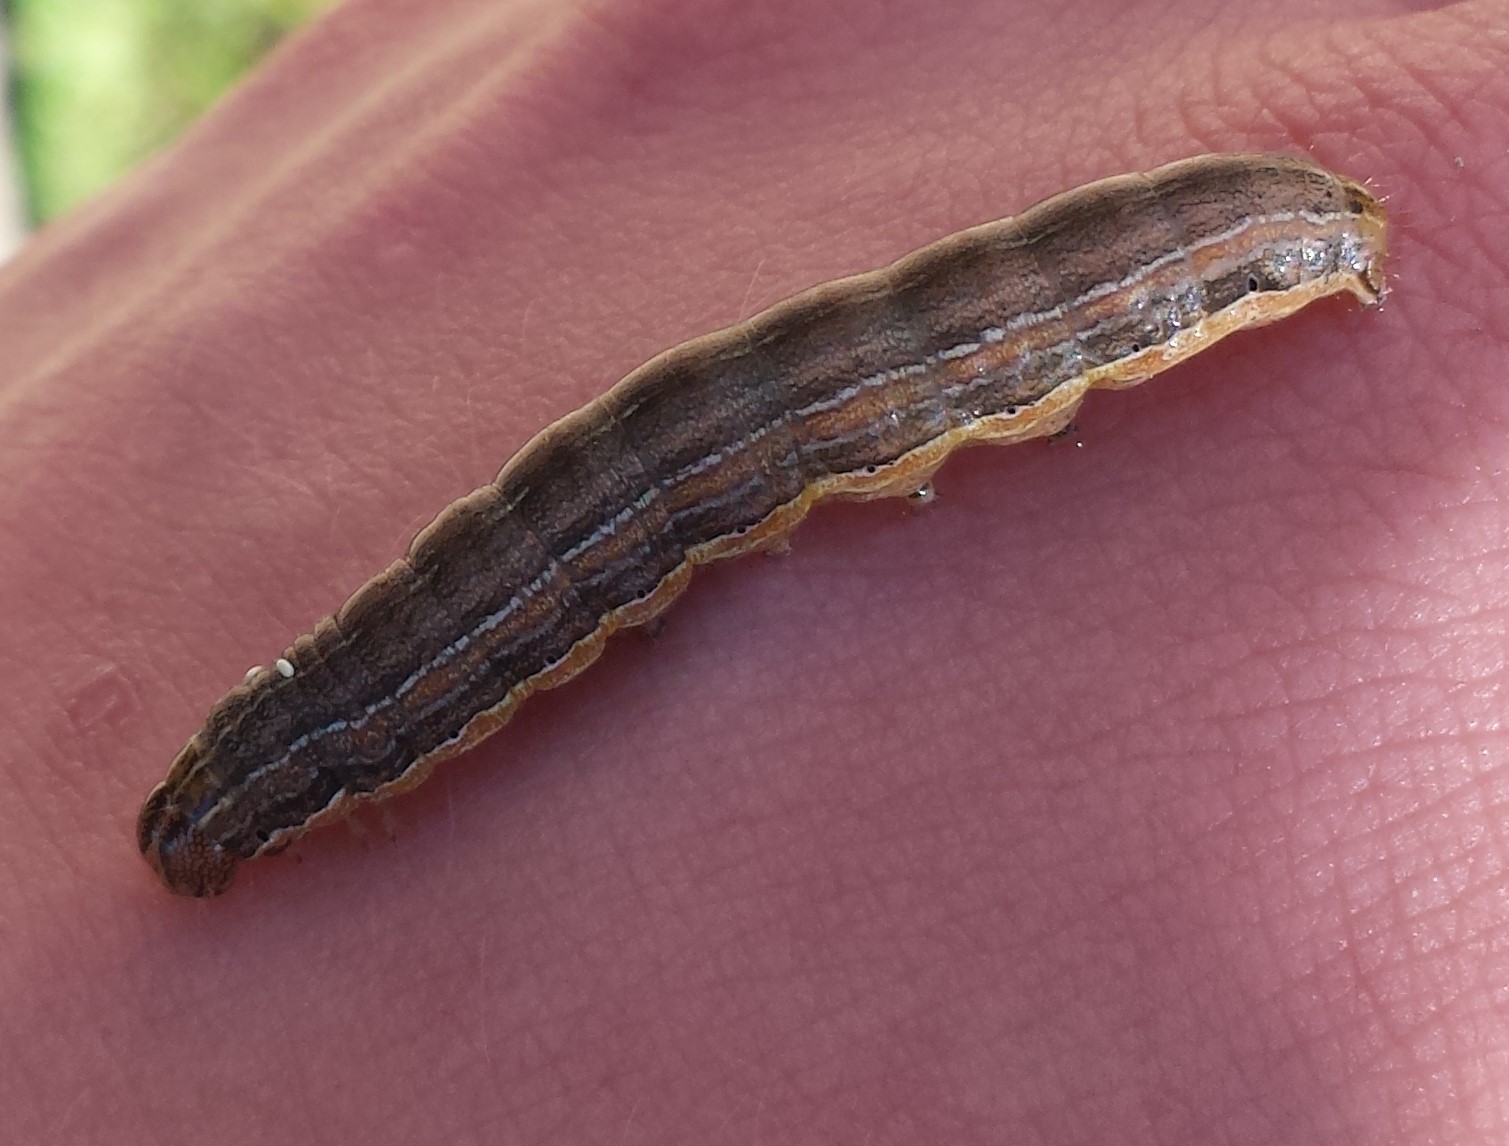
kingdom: Animalia
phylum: Arthropoda
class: Insecta
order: Lepidoptera
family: Noctuidae
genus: Mythimna
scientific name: Mythimna unipuncta
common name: White-speck
